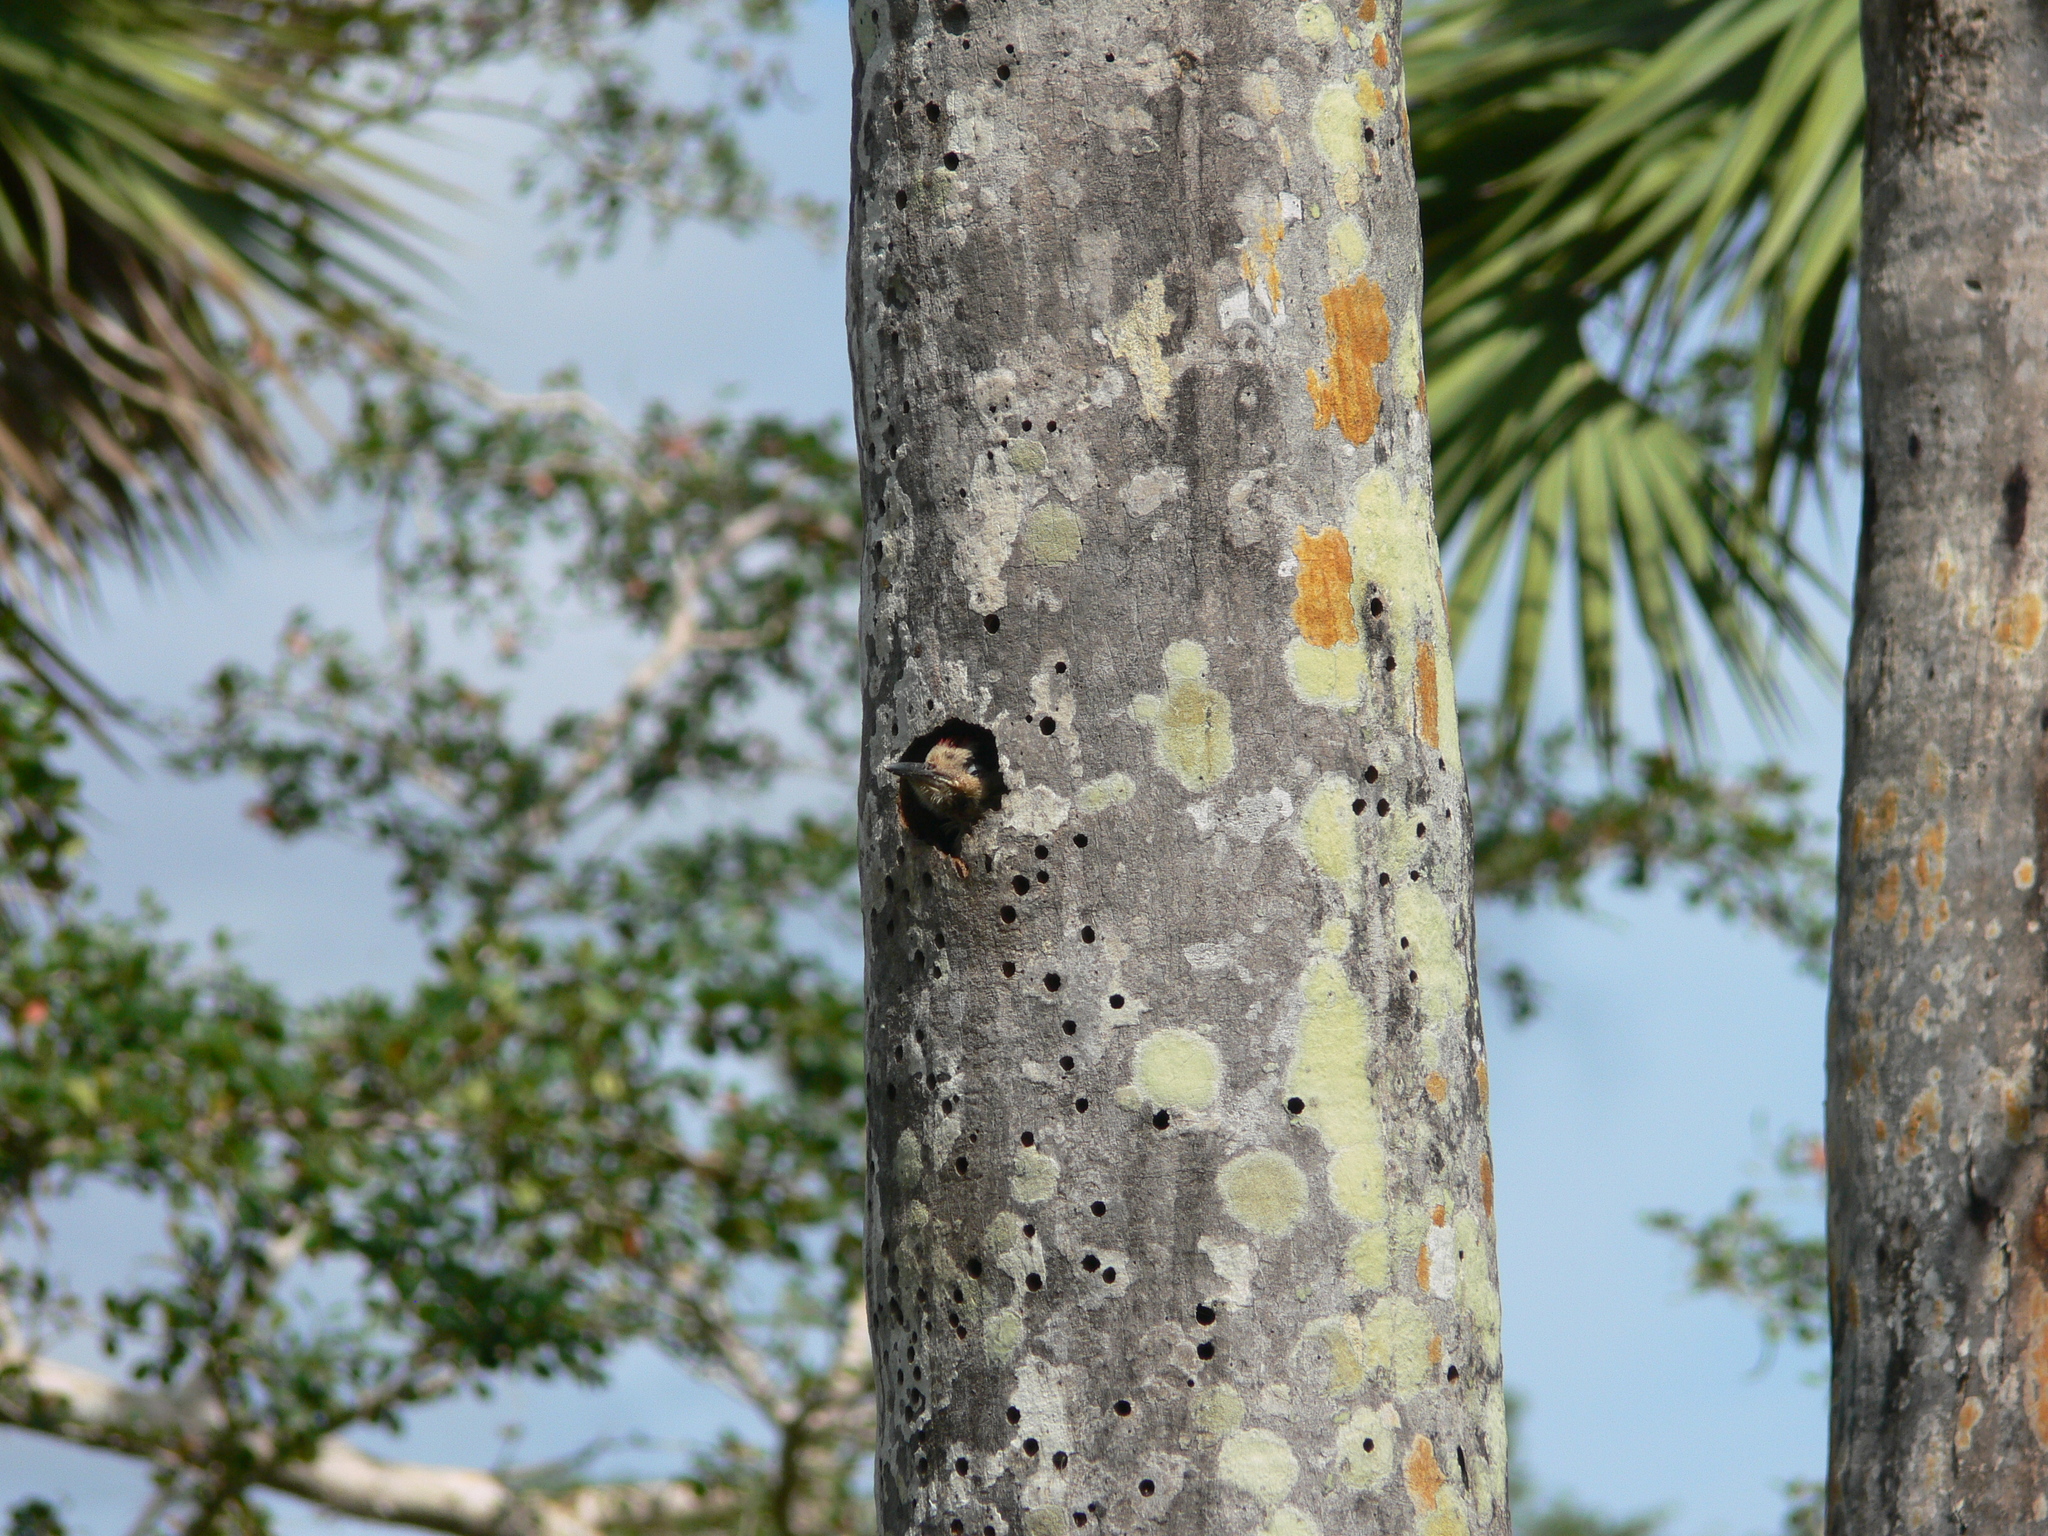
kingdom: Animalia
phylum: Chordata
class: Aves
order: Piciformes
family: Picidae
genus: Melanerpes
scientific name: Melanerpes superciliaris
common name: West indian woodpecker
